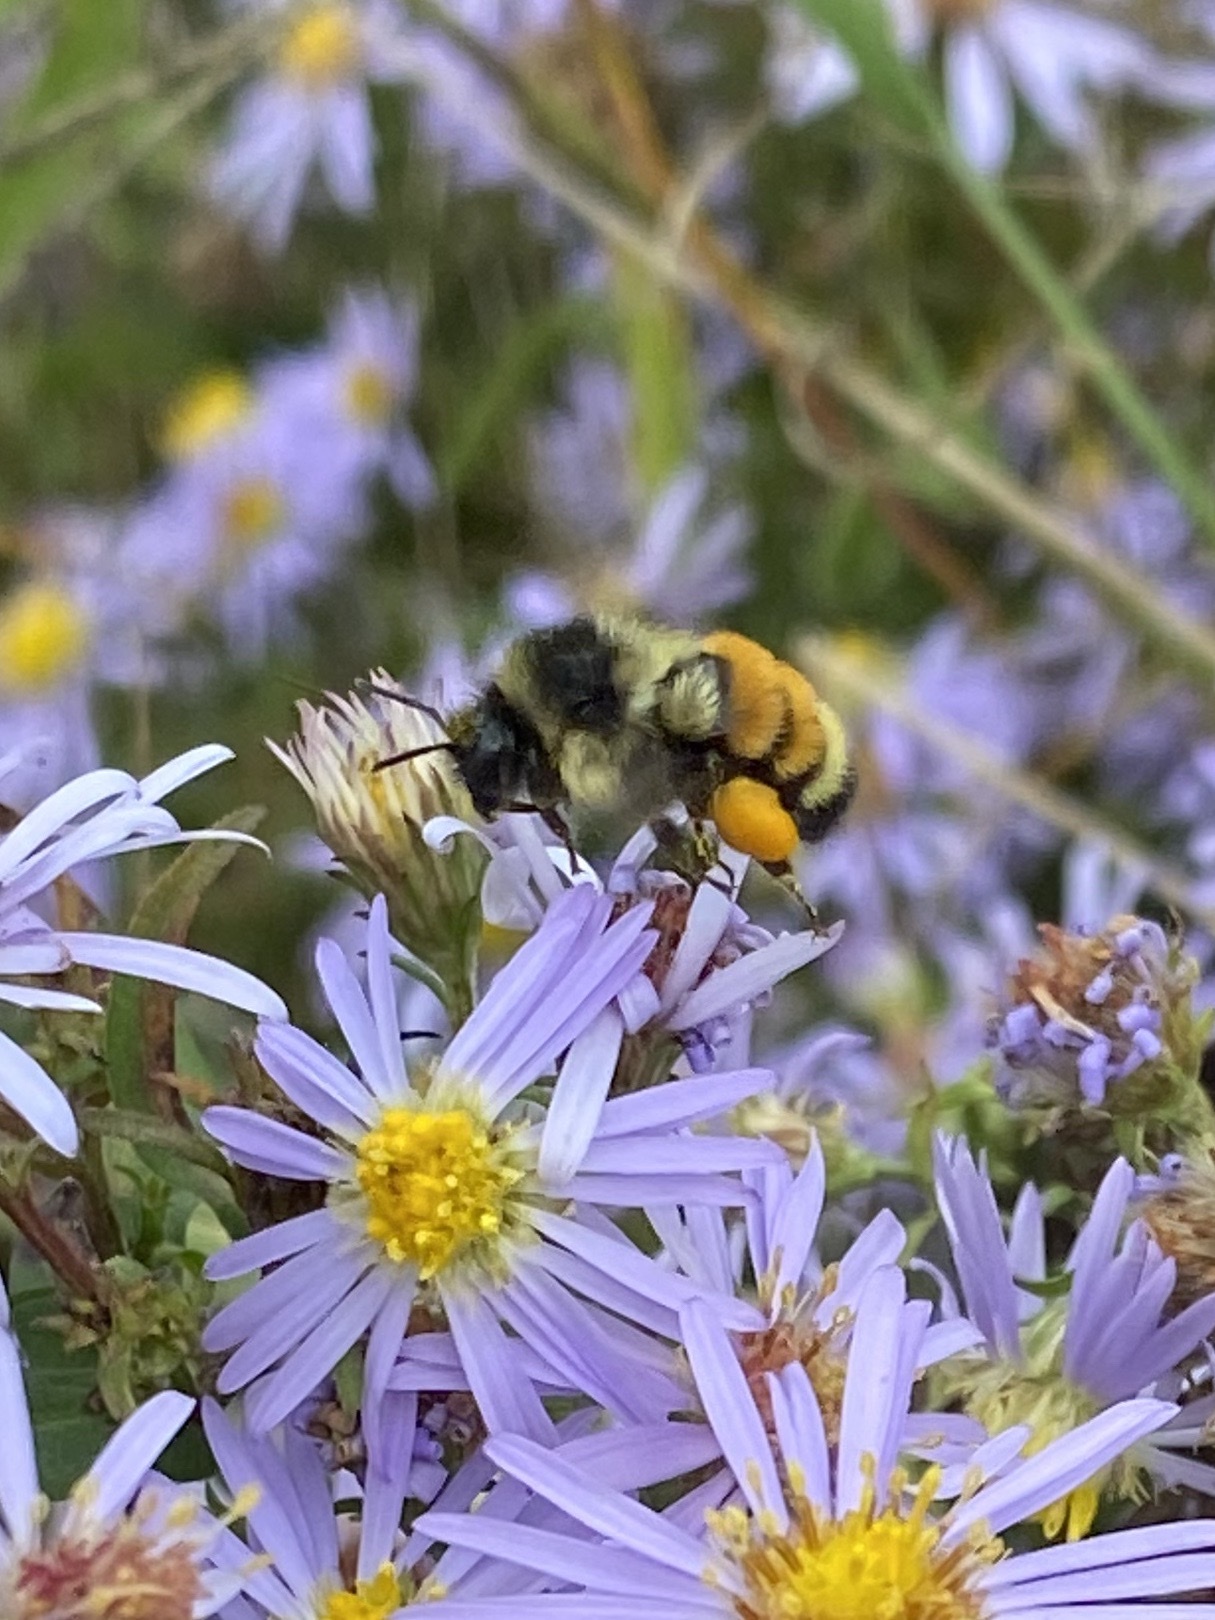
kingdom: Animalia
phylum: Arthropoda
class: Insecta
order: Hymenoptera
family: Apidae
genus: Bombus
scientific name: Bombus ternarius
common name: Tri-colored bumble bee
